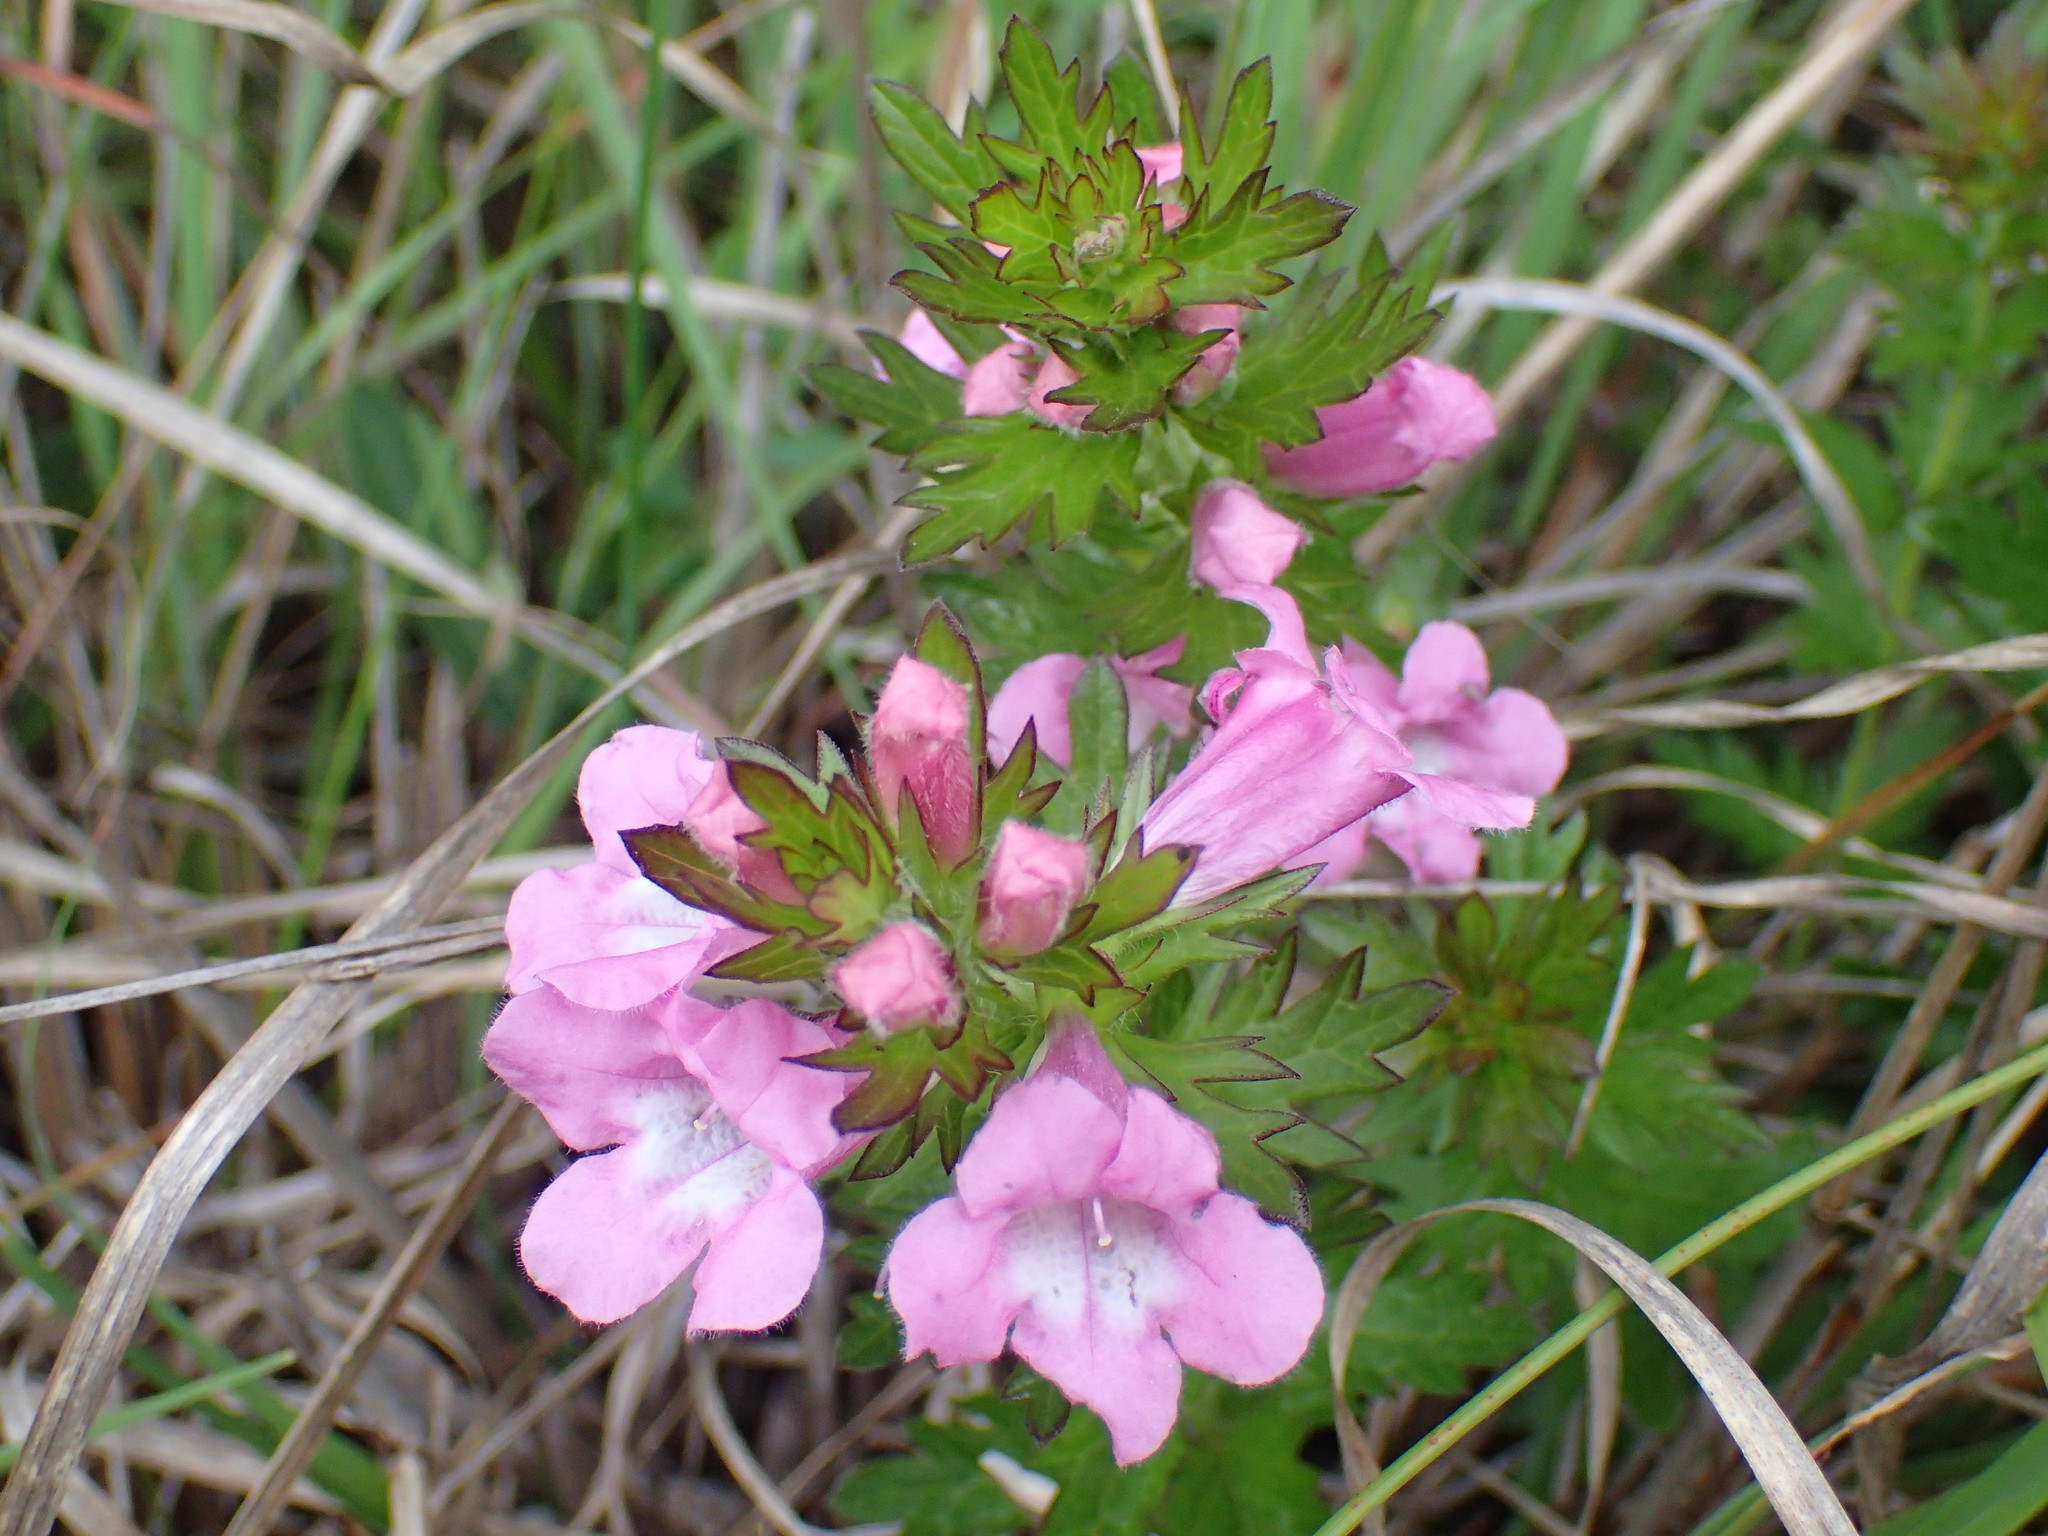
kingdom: Plantae
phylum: Tracheophyta
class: Magnoliopsida
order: Lamiales
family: Orobanchaceae
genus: Graderia
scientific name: Graderia scabra
